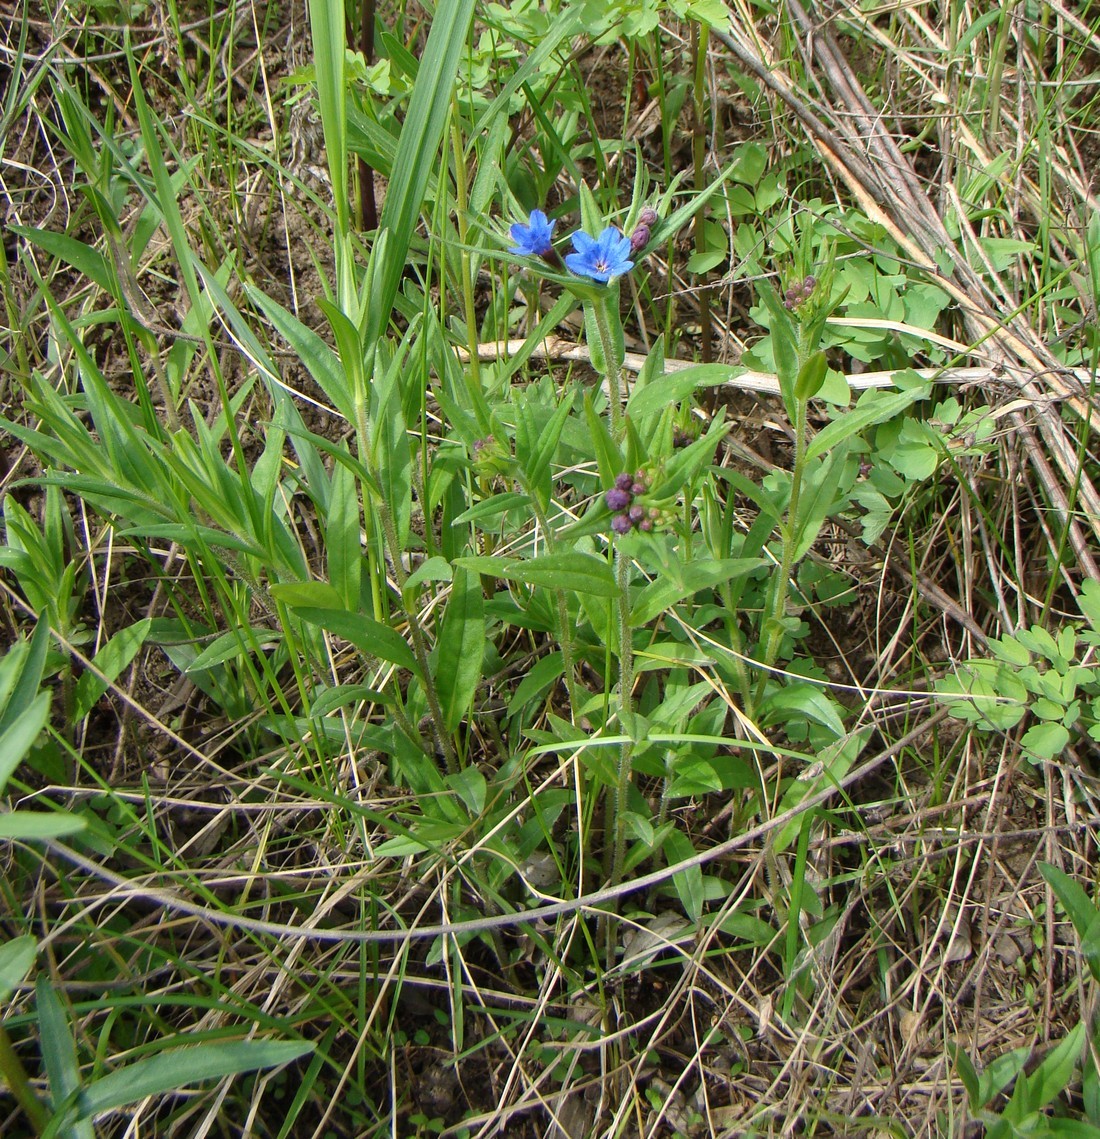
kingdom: Plantae
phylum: Tracheophyta
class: Magnoliopsida
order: Boraginales
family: Boraginaceae
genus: Aegonychon
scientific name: Aegonychon purpurocaeruleum
